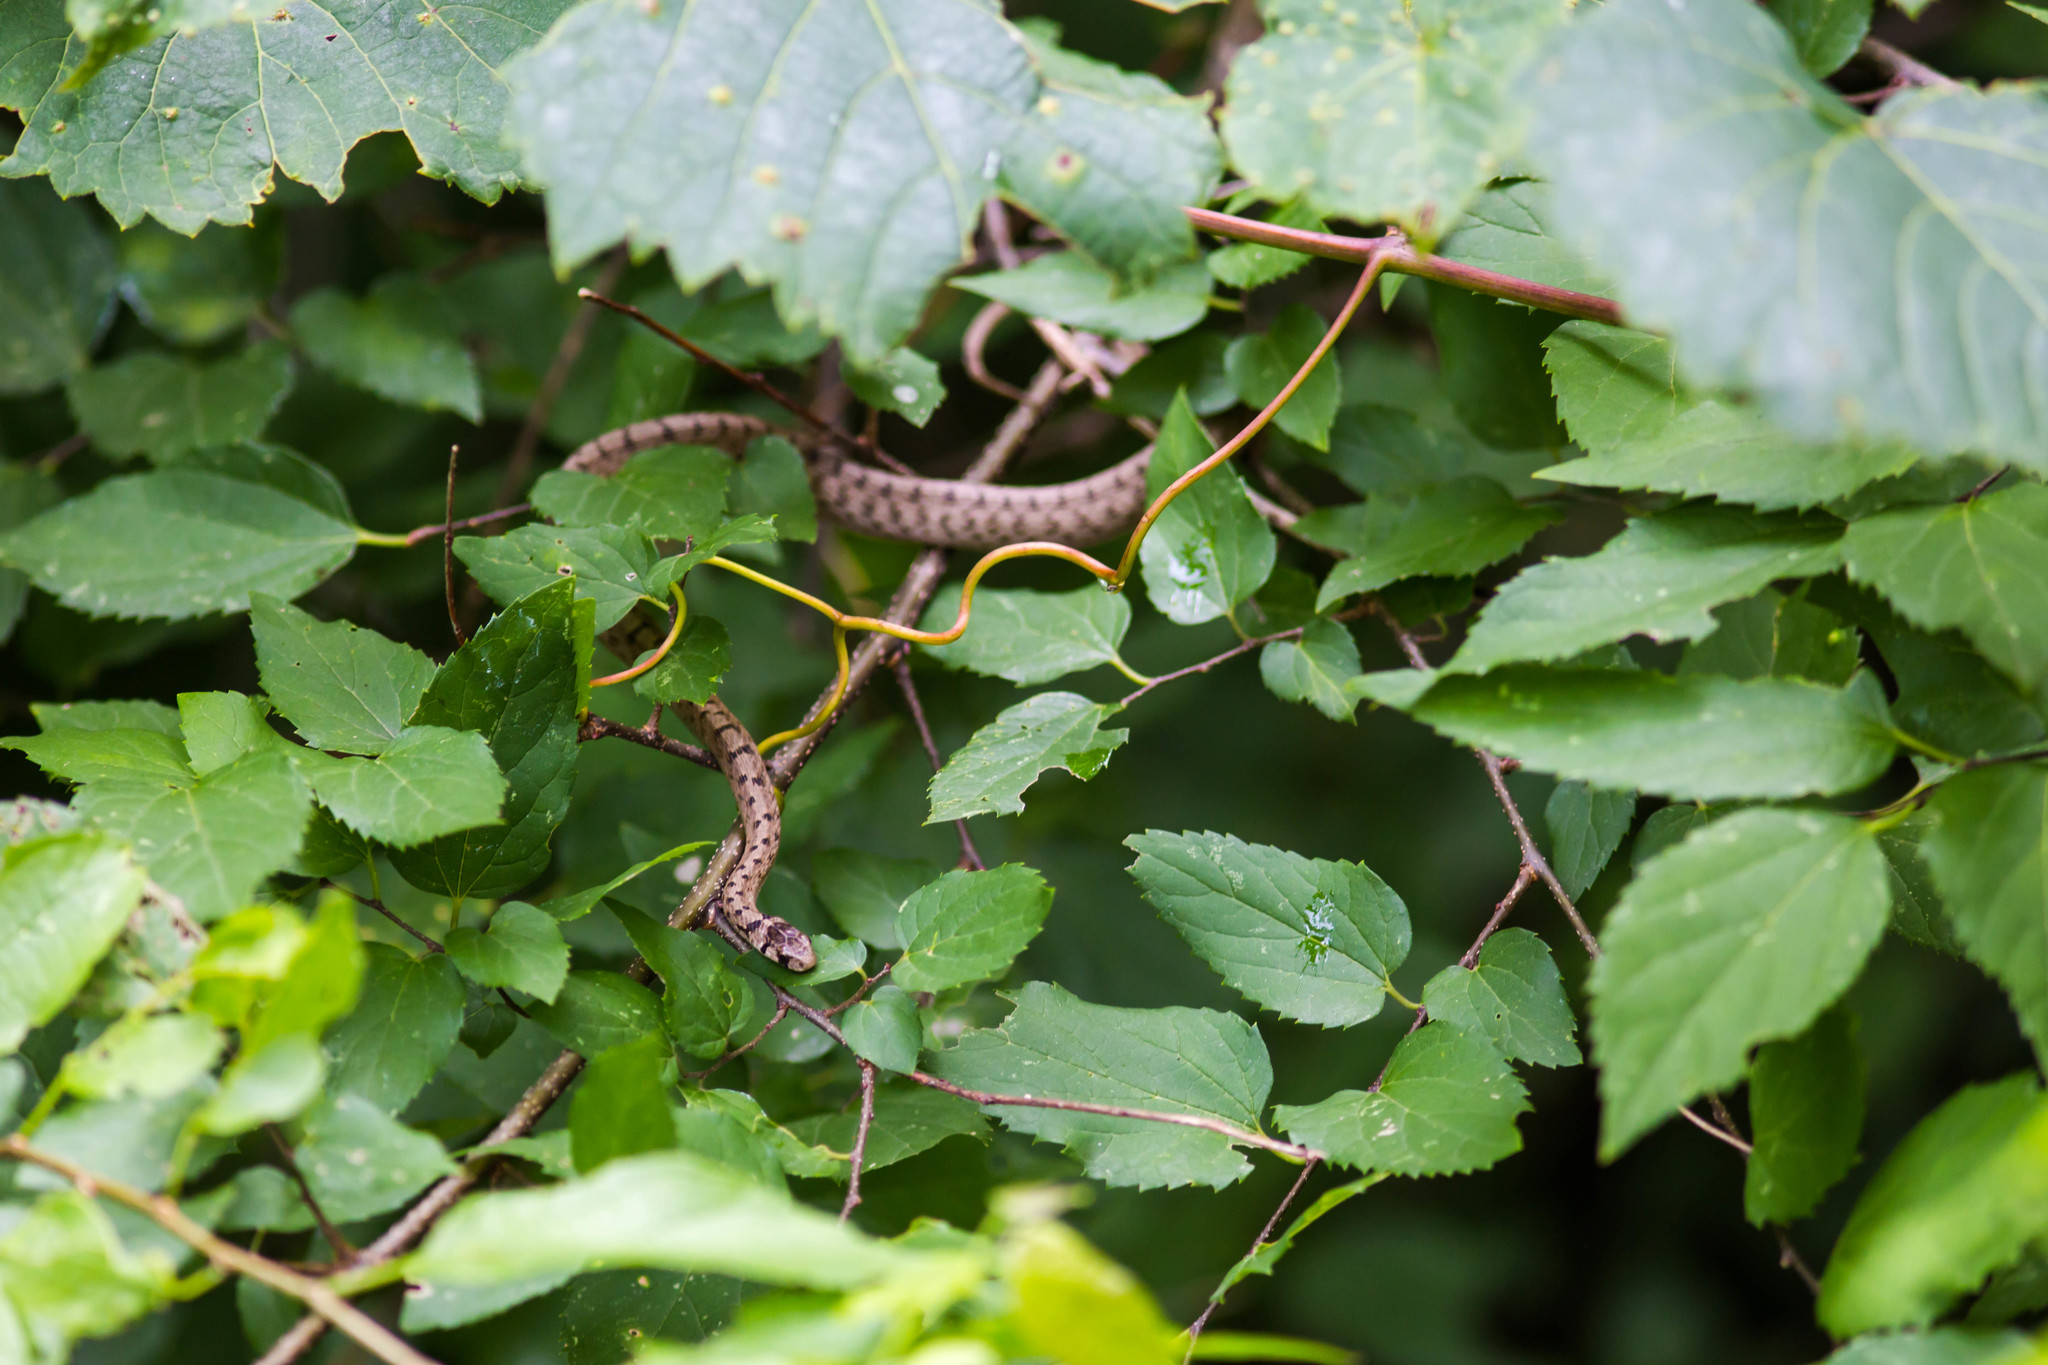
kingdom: Animalia
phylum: Chordata
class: Squamata
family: Colubridae
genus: Storeria
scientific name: Storeria dekayi
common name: (dekay’s) brown snake
